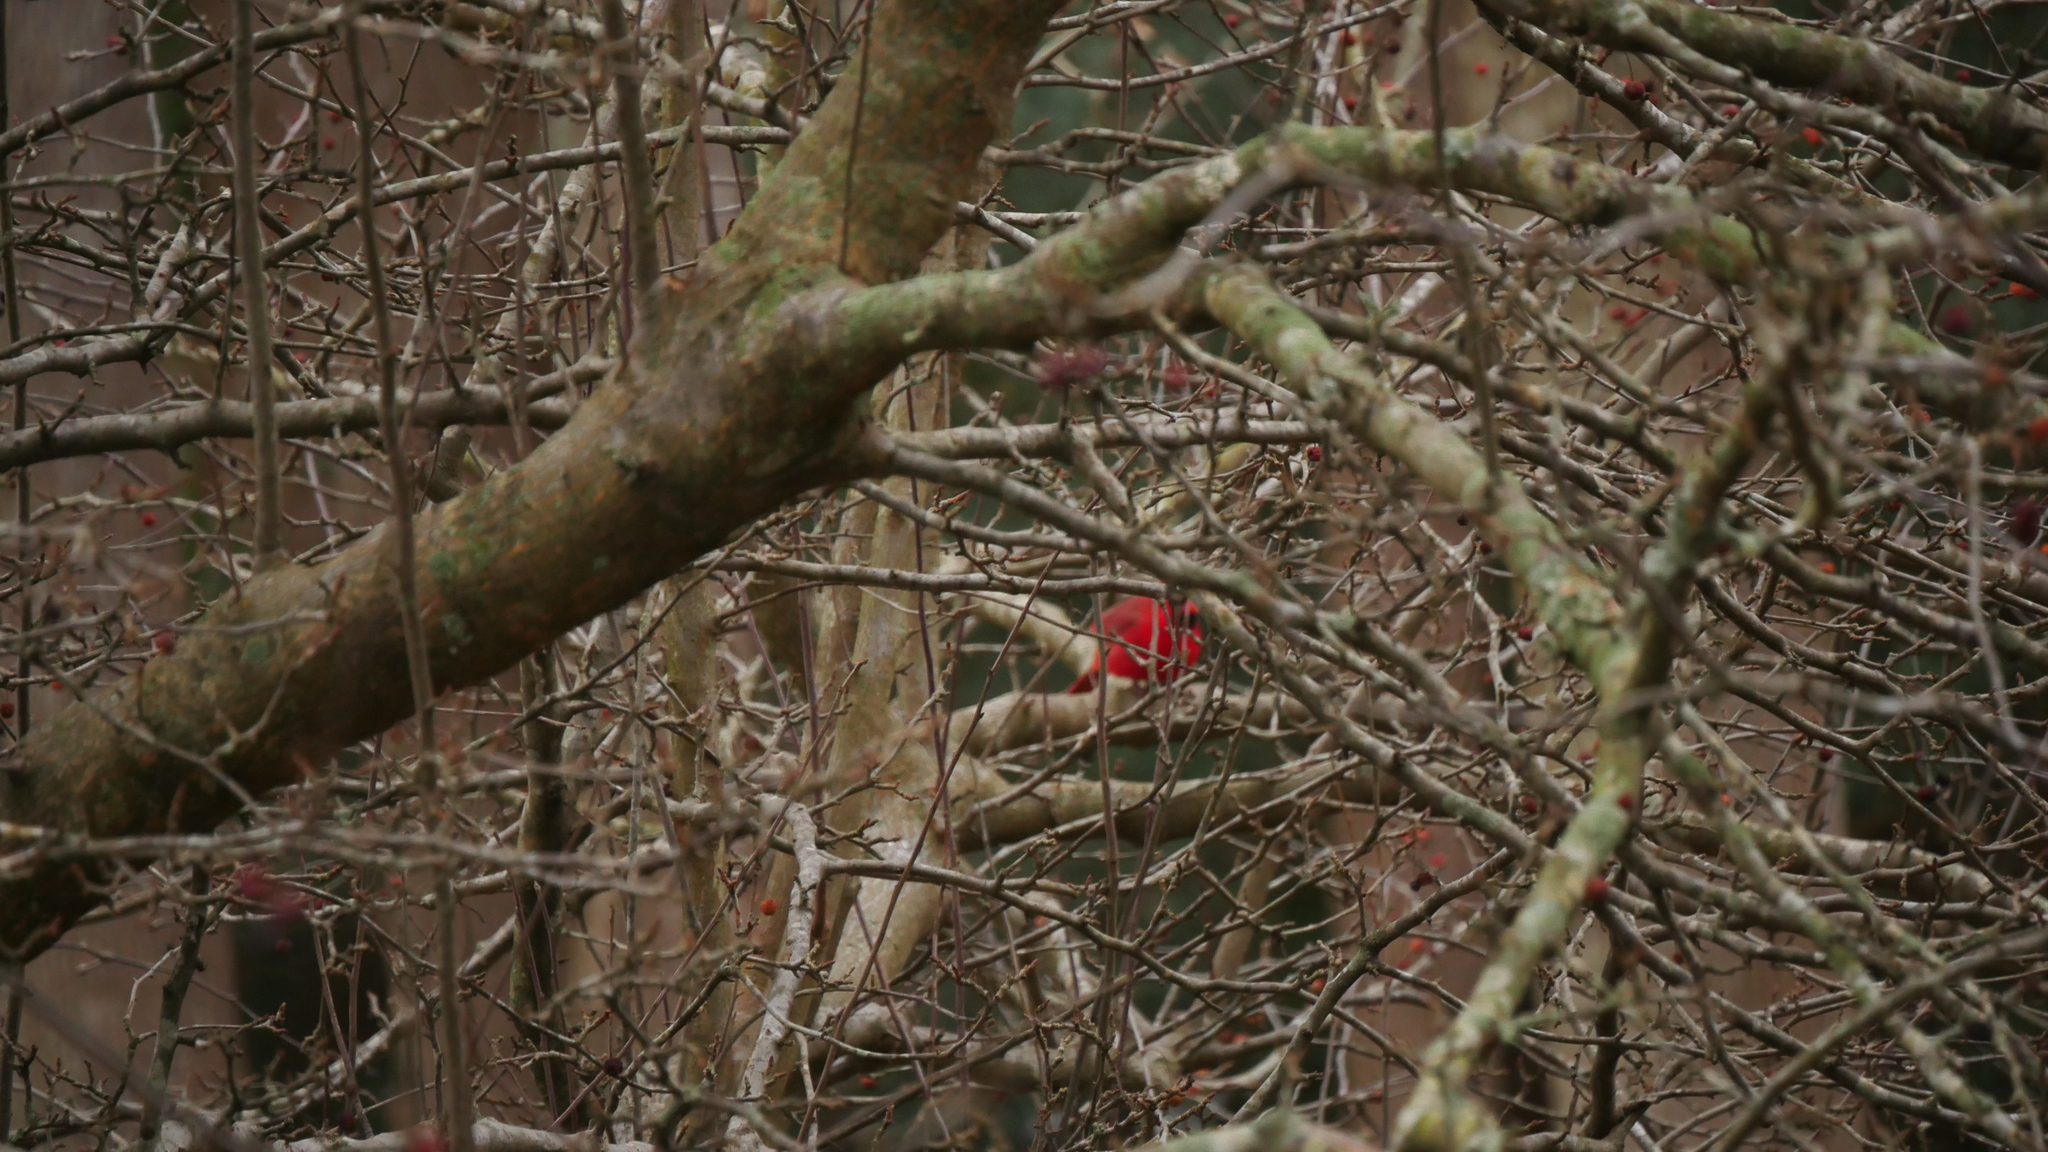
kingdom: Animalia
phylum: Chordata
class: Aves
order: Passeriformes
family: Cardinalidae
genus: Cardinalis
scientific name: Cardinalis cardinalis
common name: Northern cardinal
